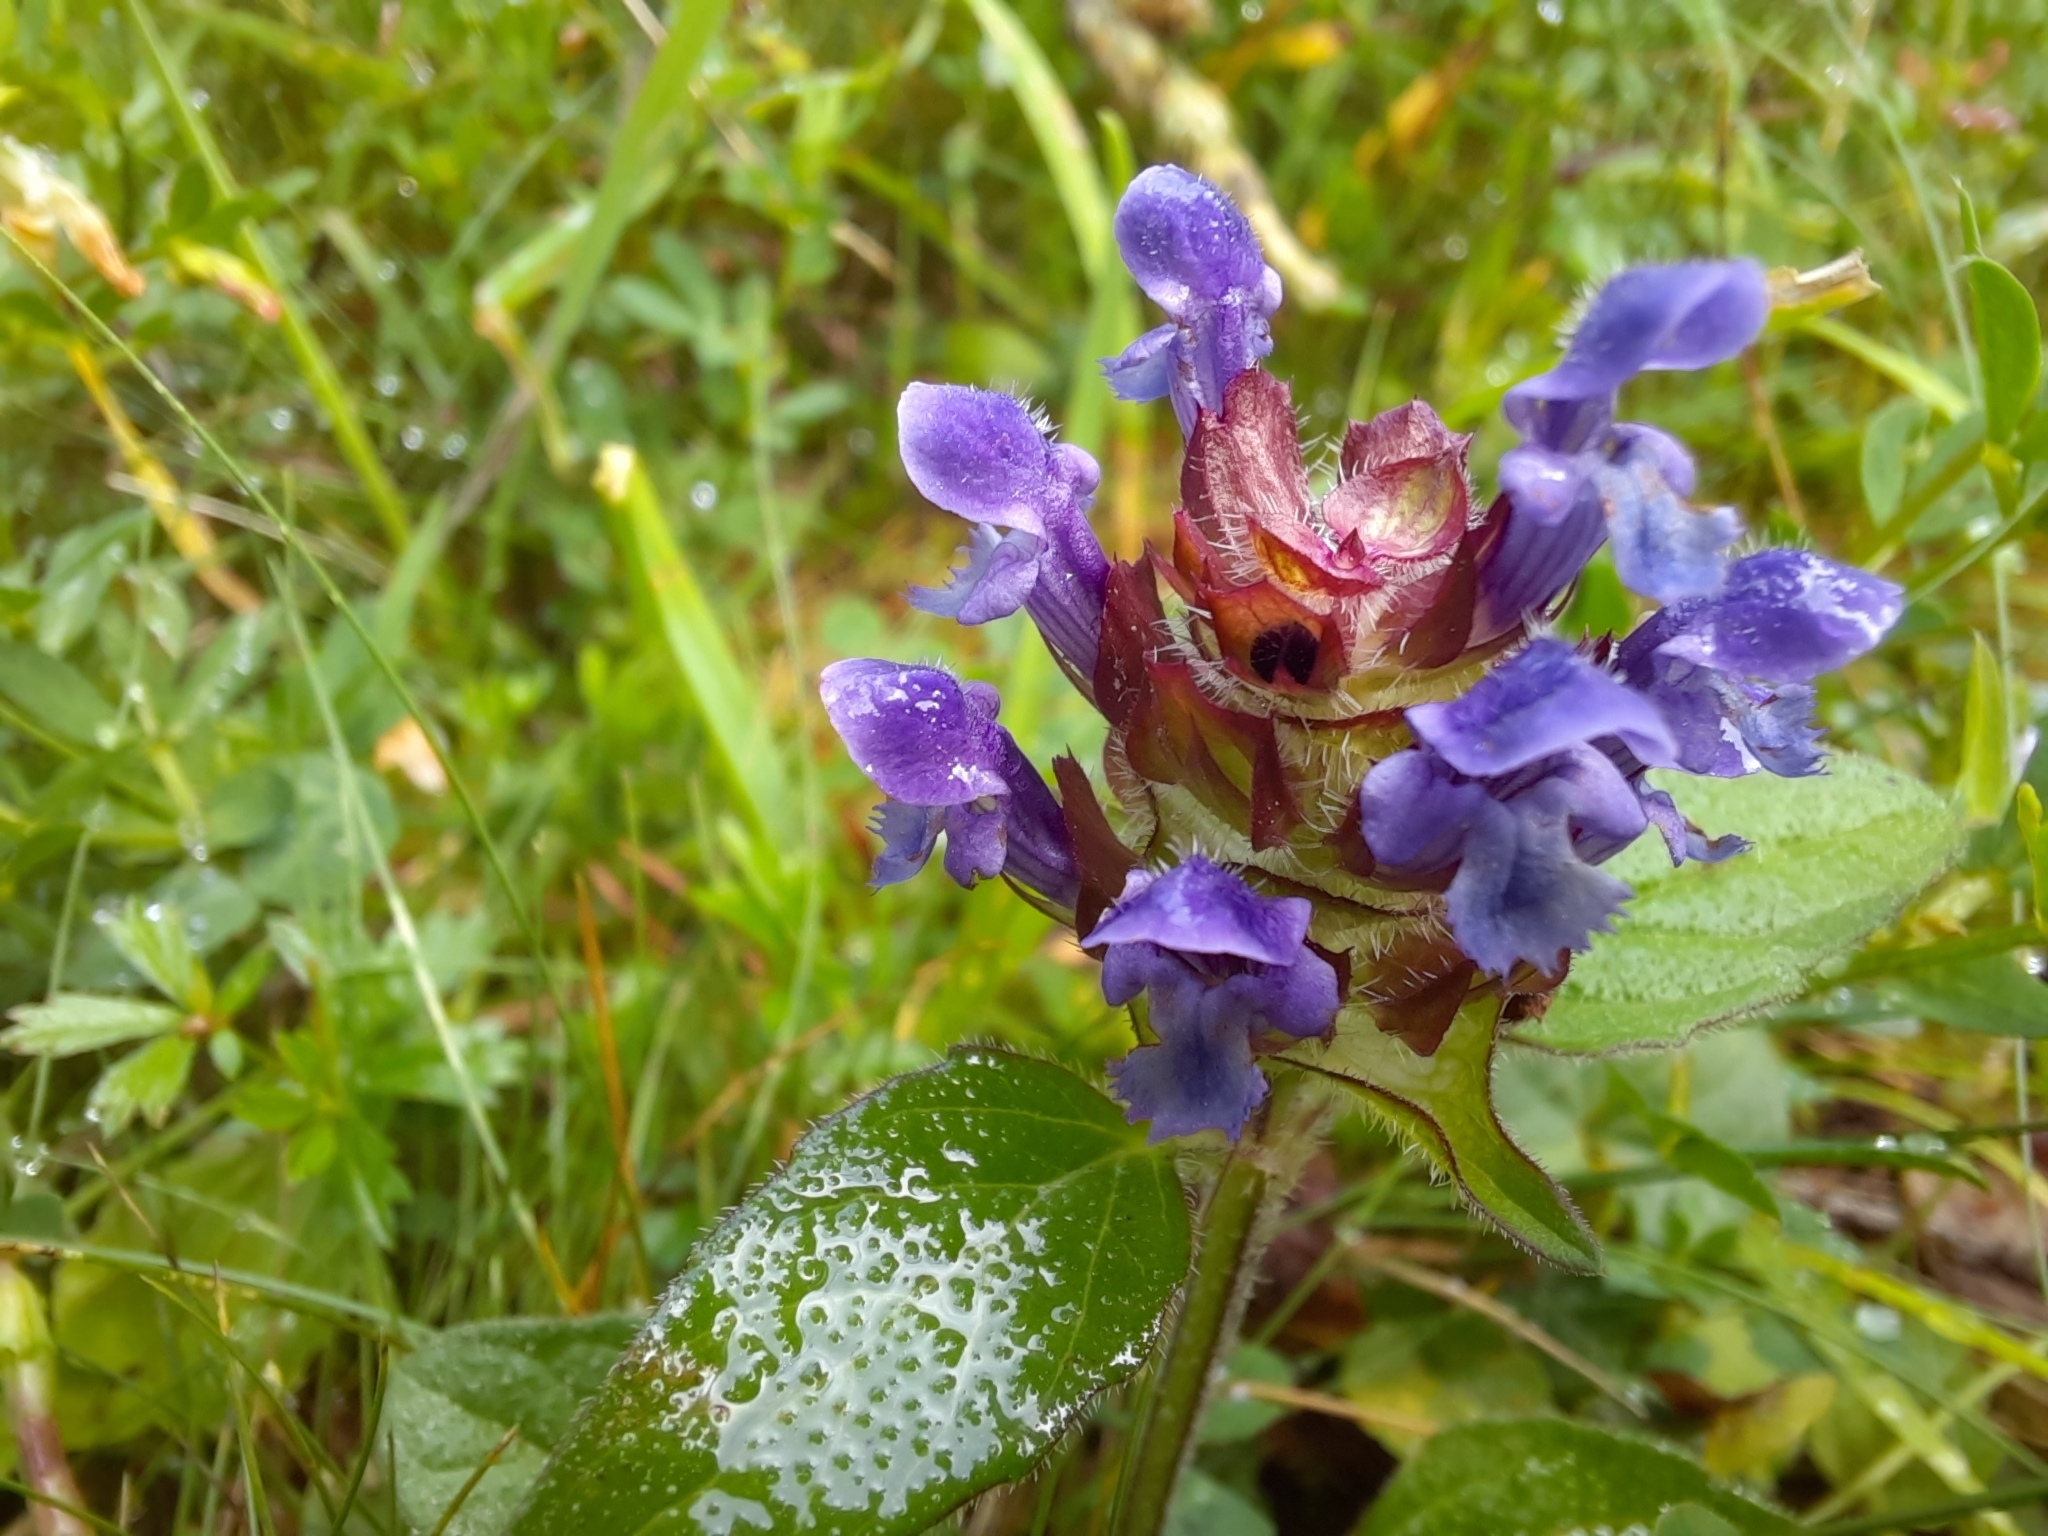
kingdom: Plantae
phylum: Tracheophyta
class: Magnoliopsida
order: Lamiales
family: Lamiaceae
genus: Prunella
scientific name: Prunella vulgaris
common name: Heal-all
